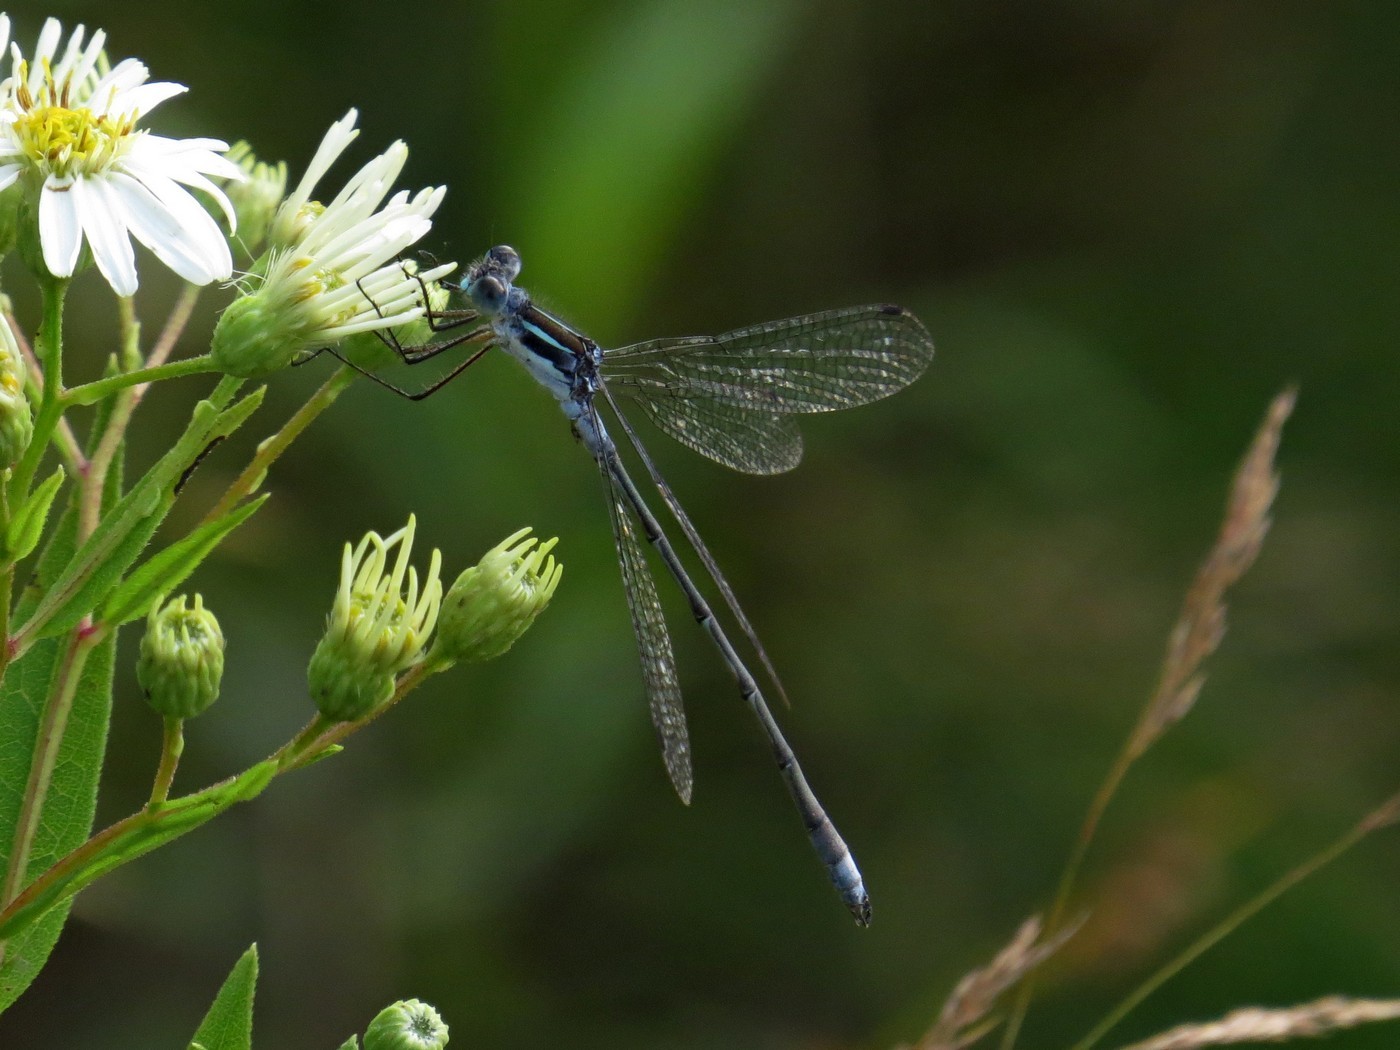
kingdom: Animalia
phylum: Arthropoda
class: Insecta
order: Odonata
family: Lestidae
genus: Lestes
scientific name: Lestes
